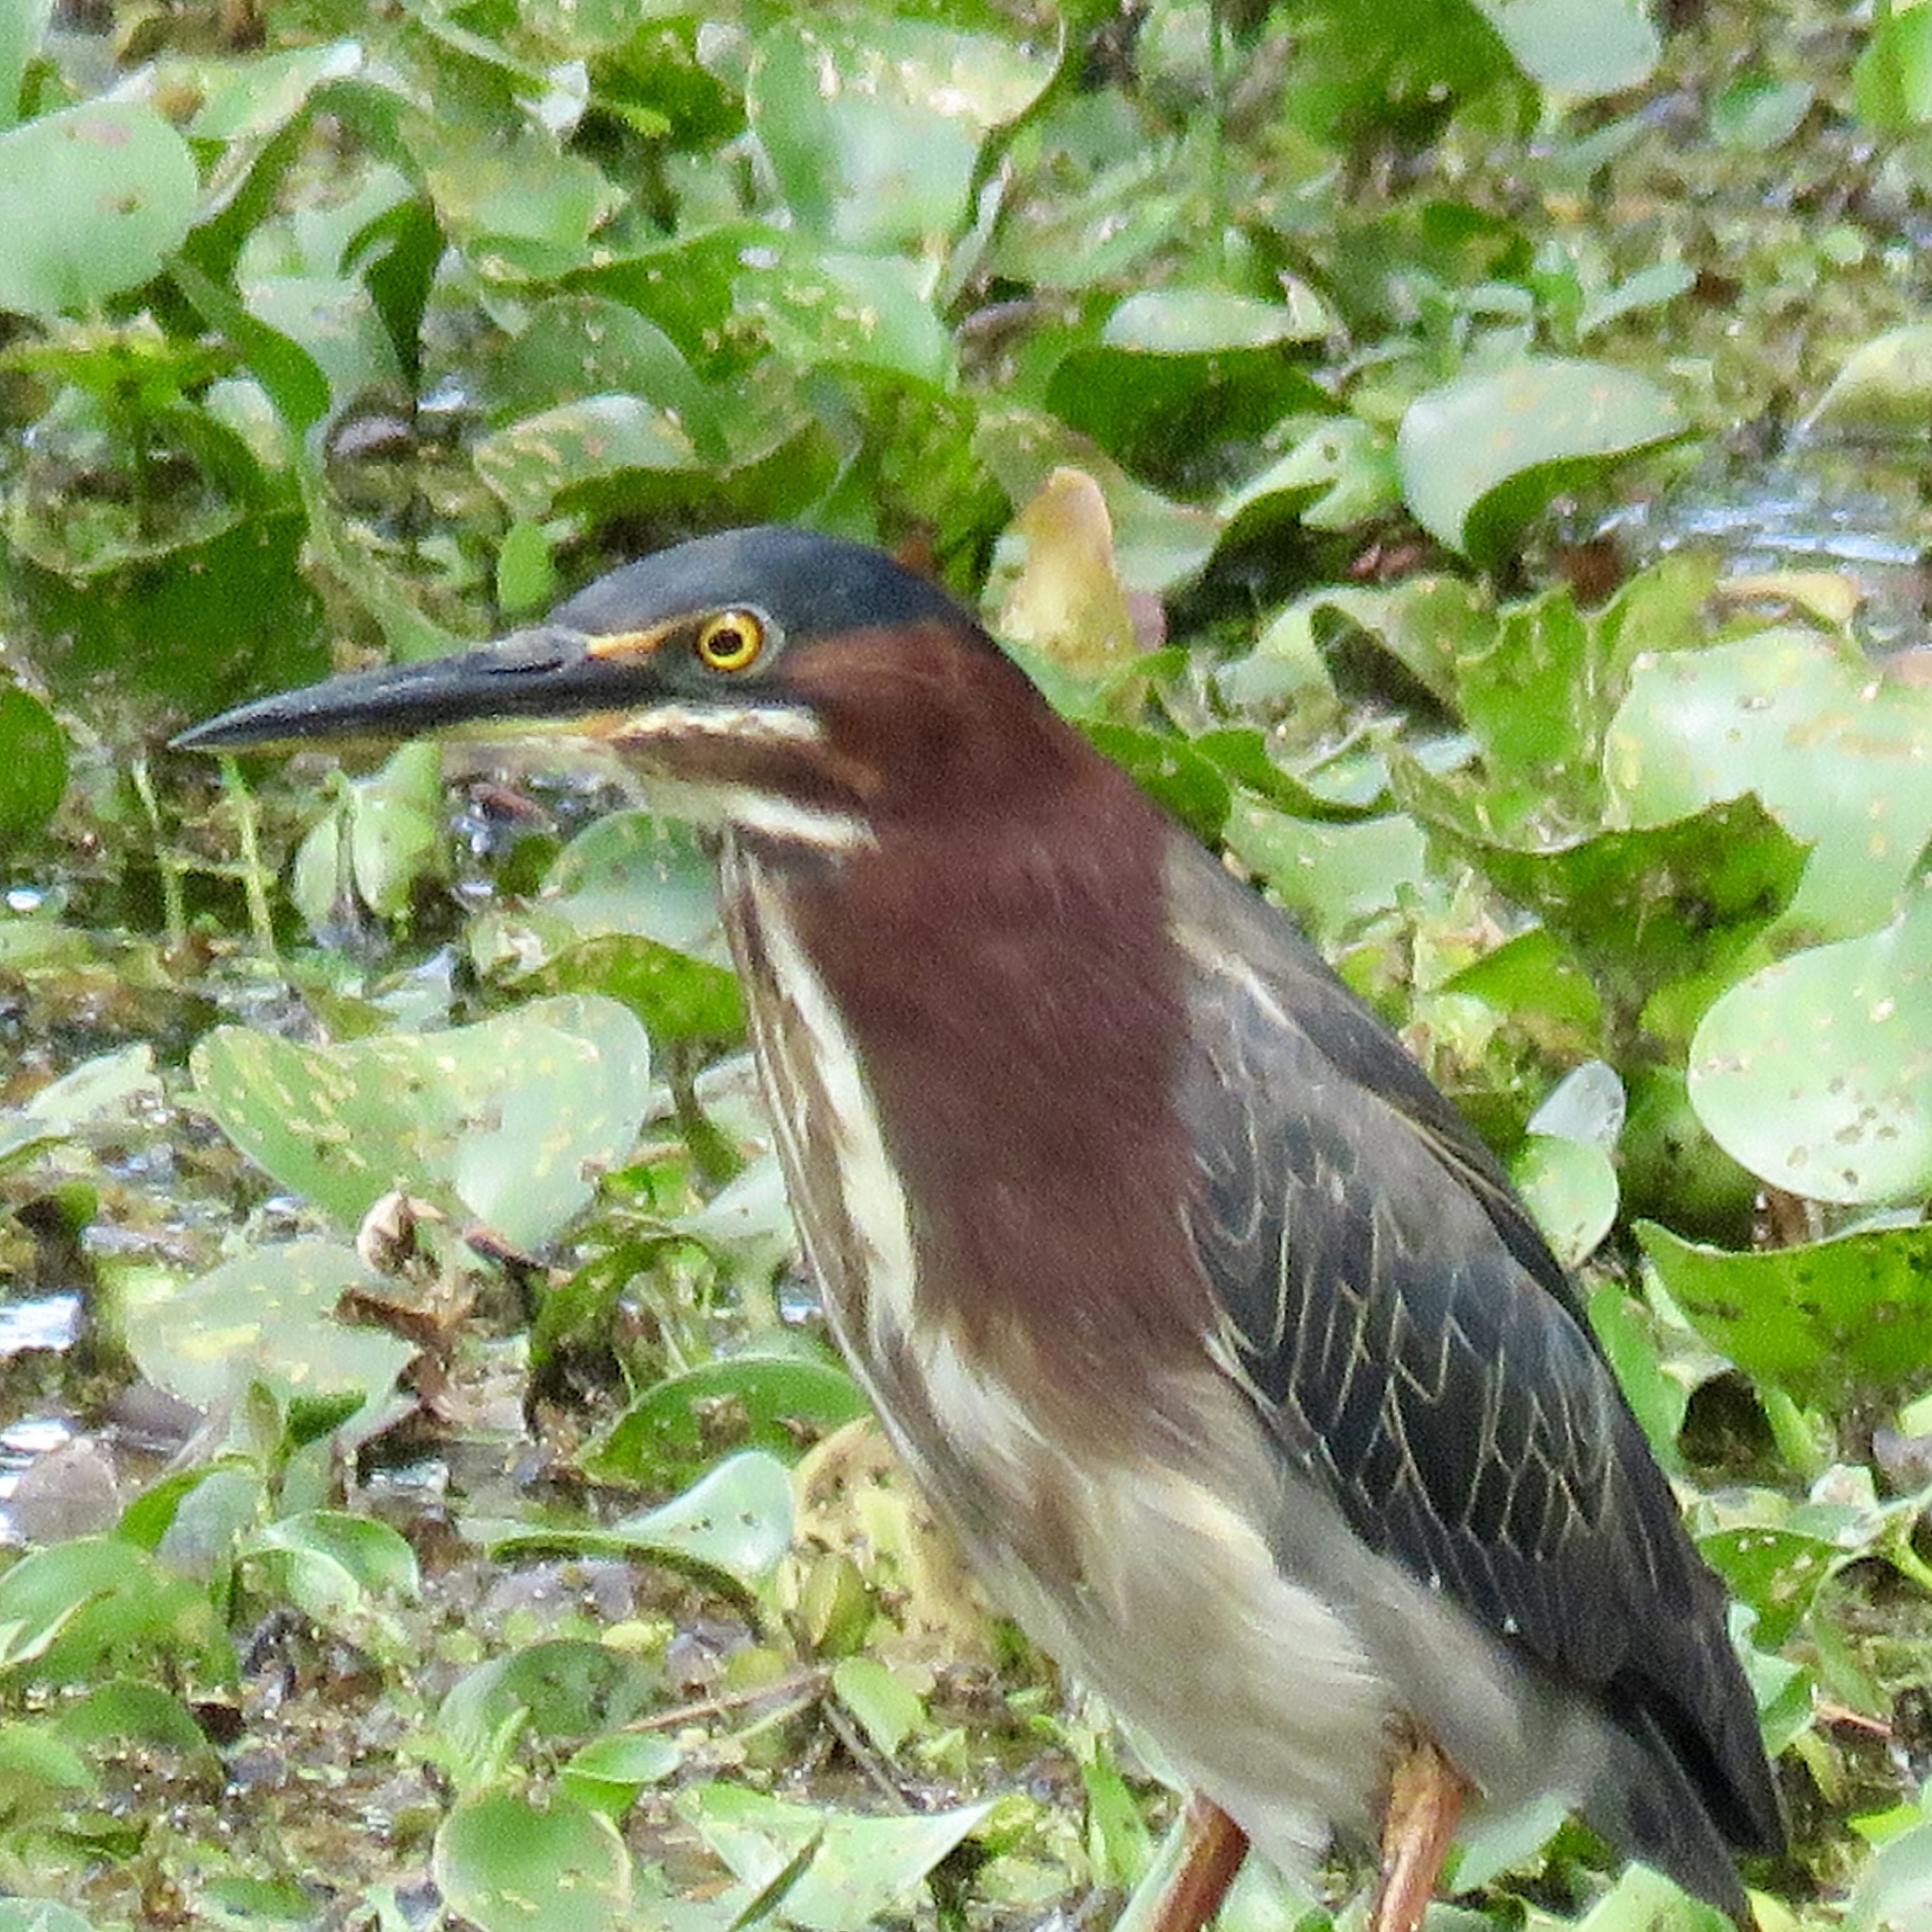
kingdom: Animalia
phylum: Chordata
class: Aves
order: Pelecaniformes
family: Ardeidae
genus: Butorides
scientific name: Butorides virescens
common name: Green heron
